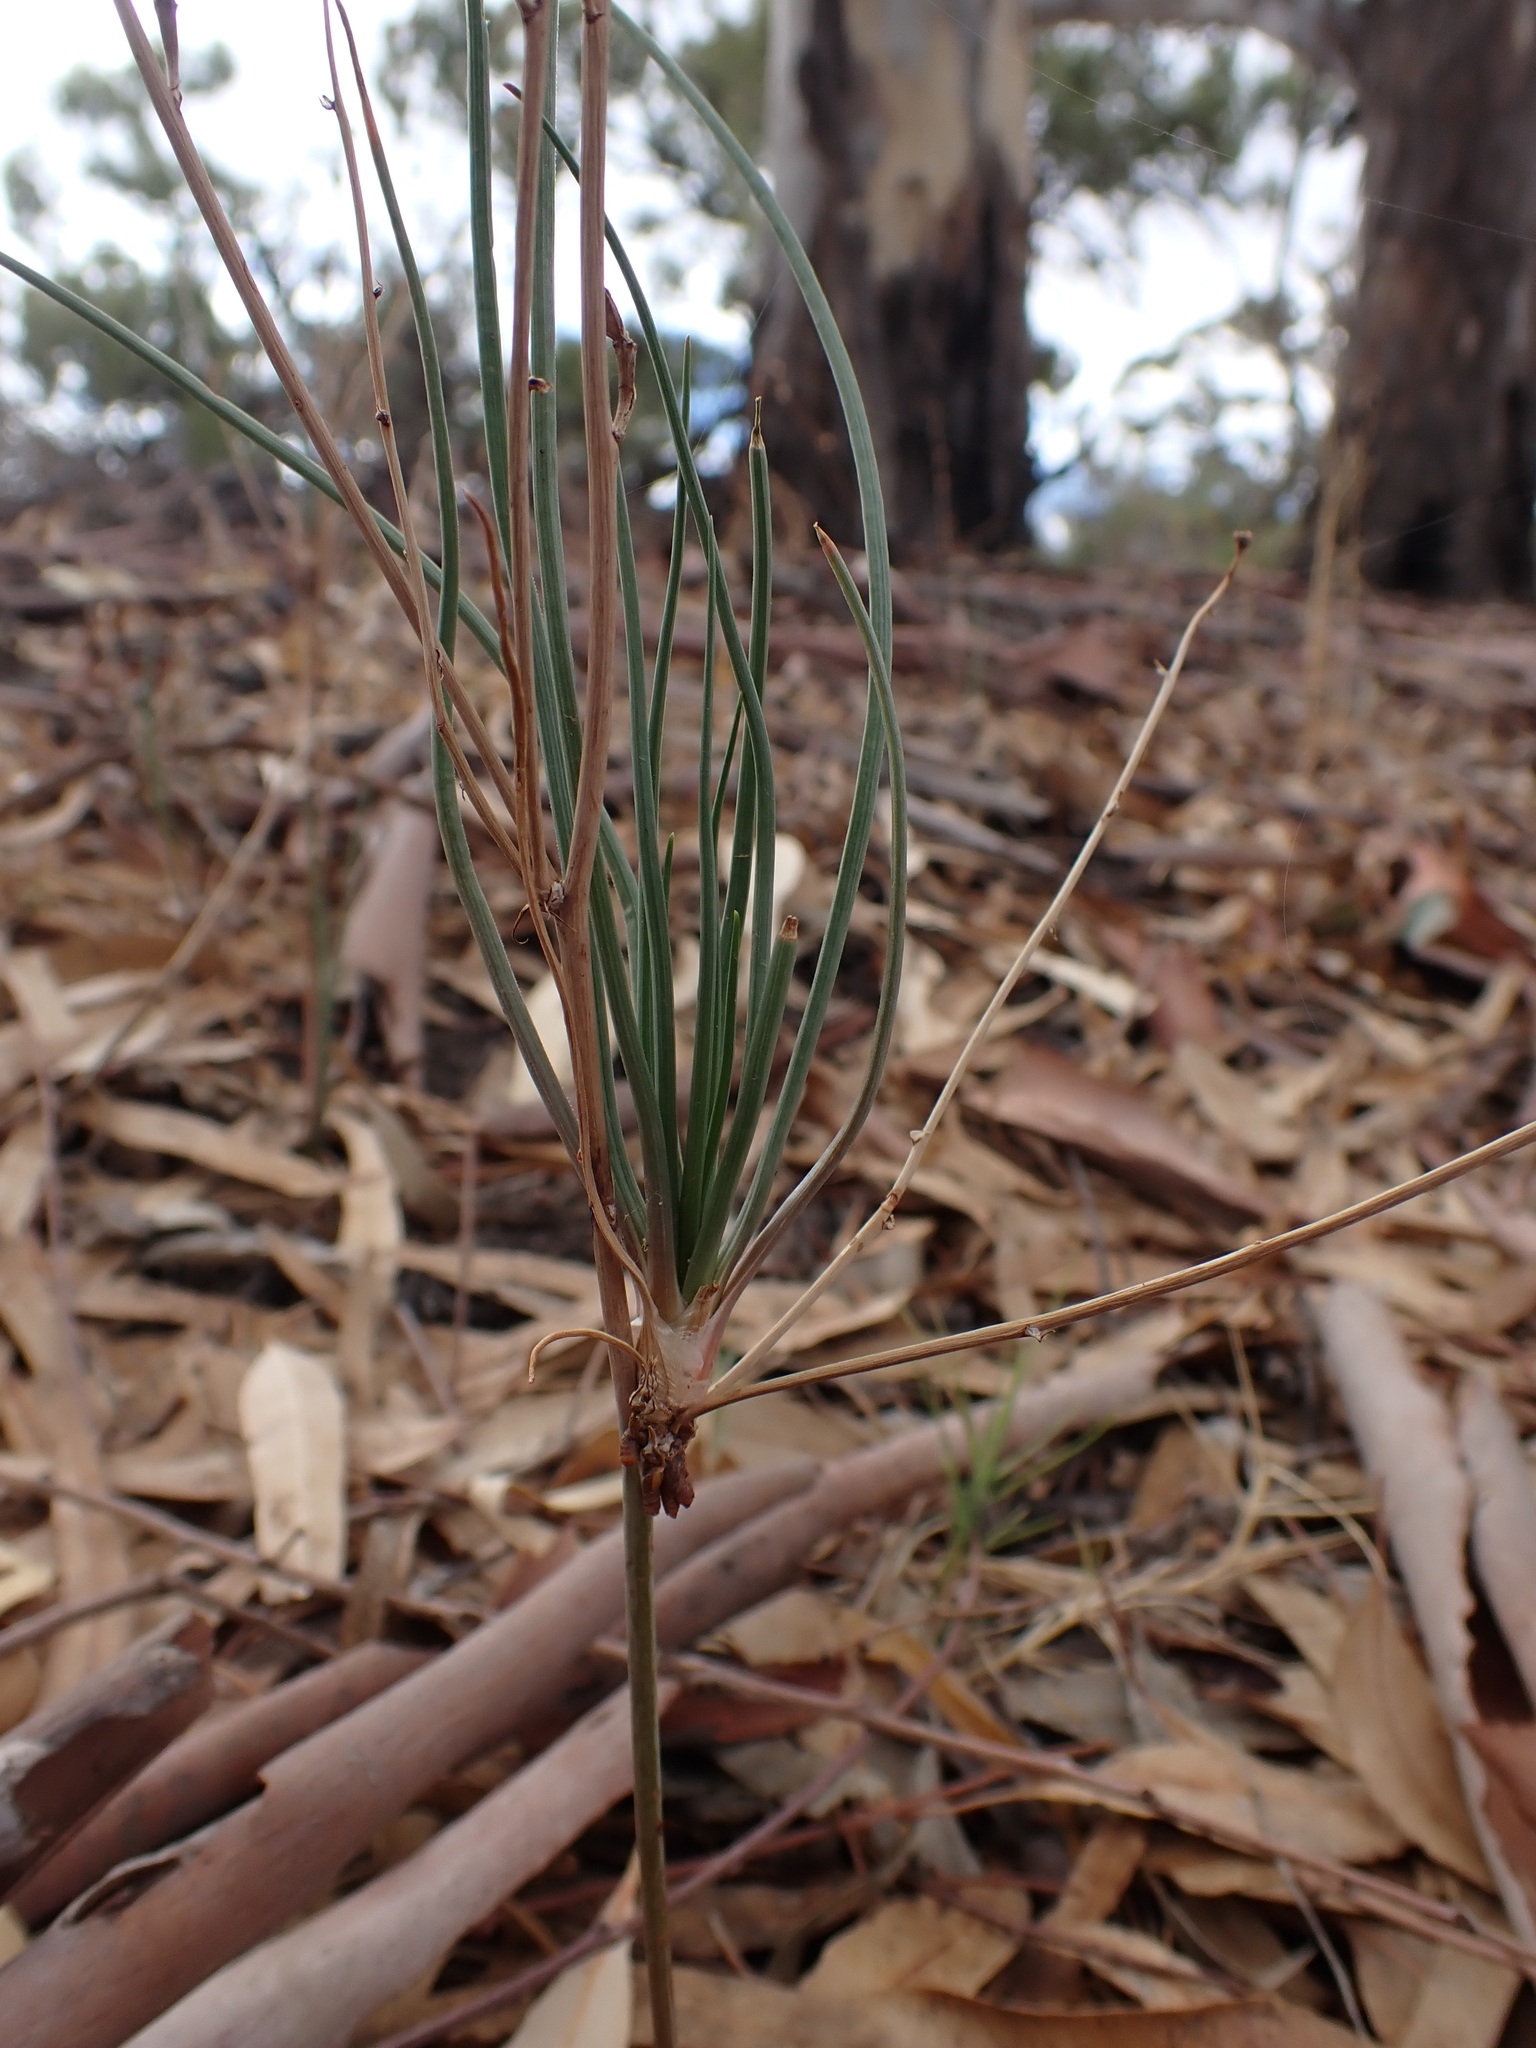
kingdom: Plantae
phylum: Tracheophyta
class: Liliopsida
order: Asparagales
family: Asphodelaceae
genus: Asphodelus
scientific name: Asphodelus fistulosus
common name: Onionweed
